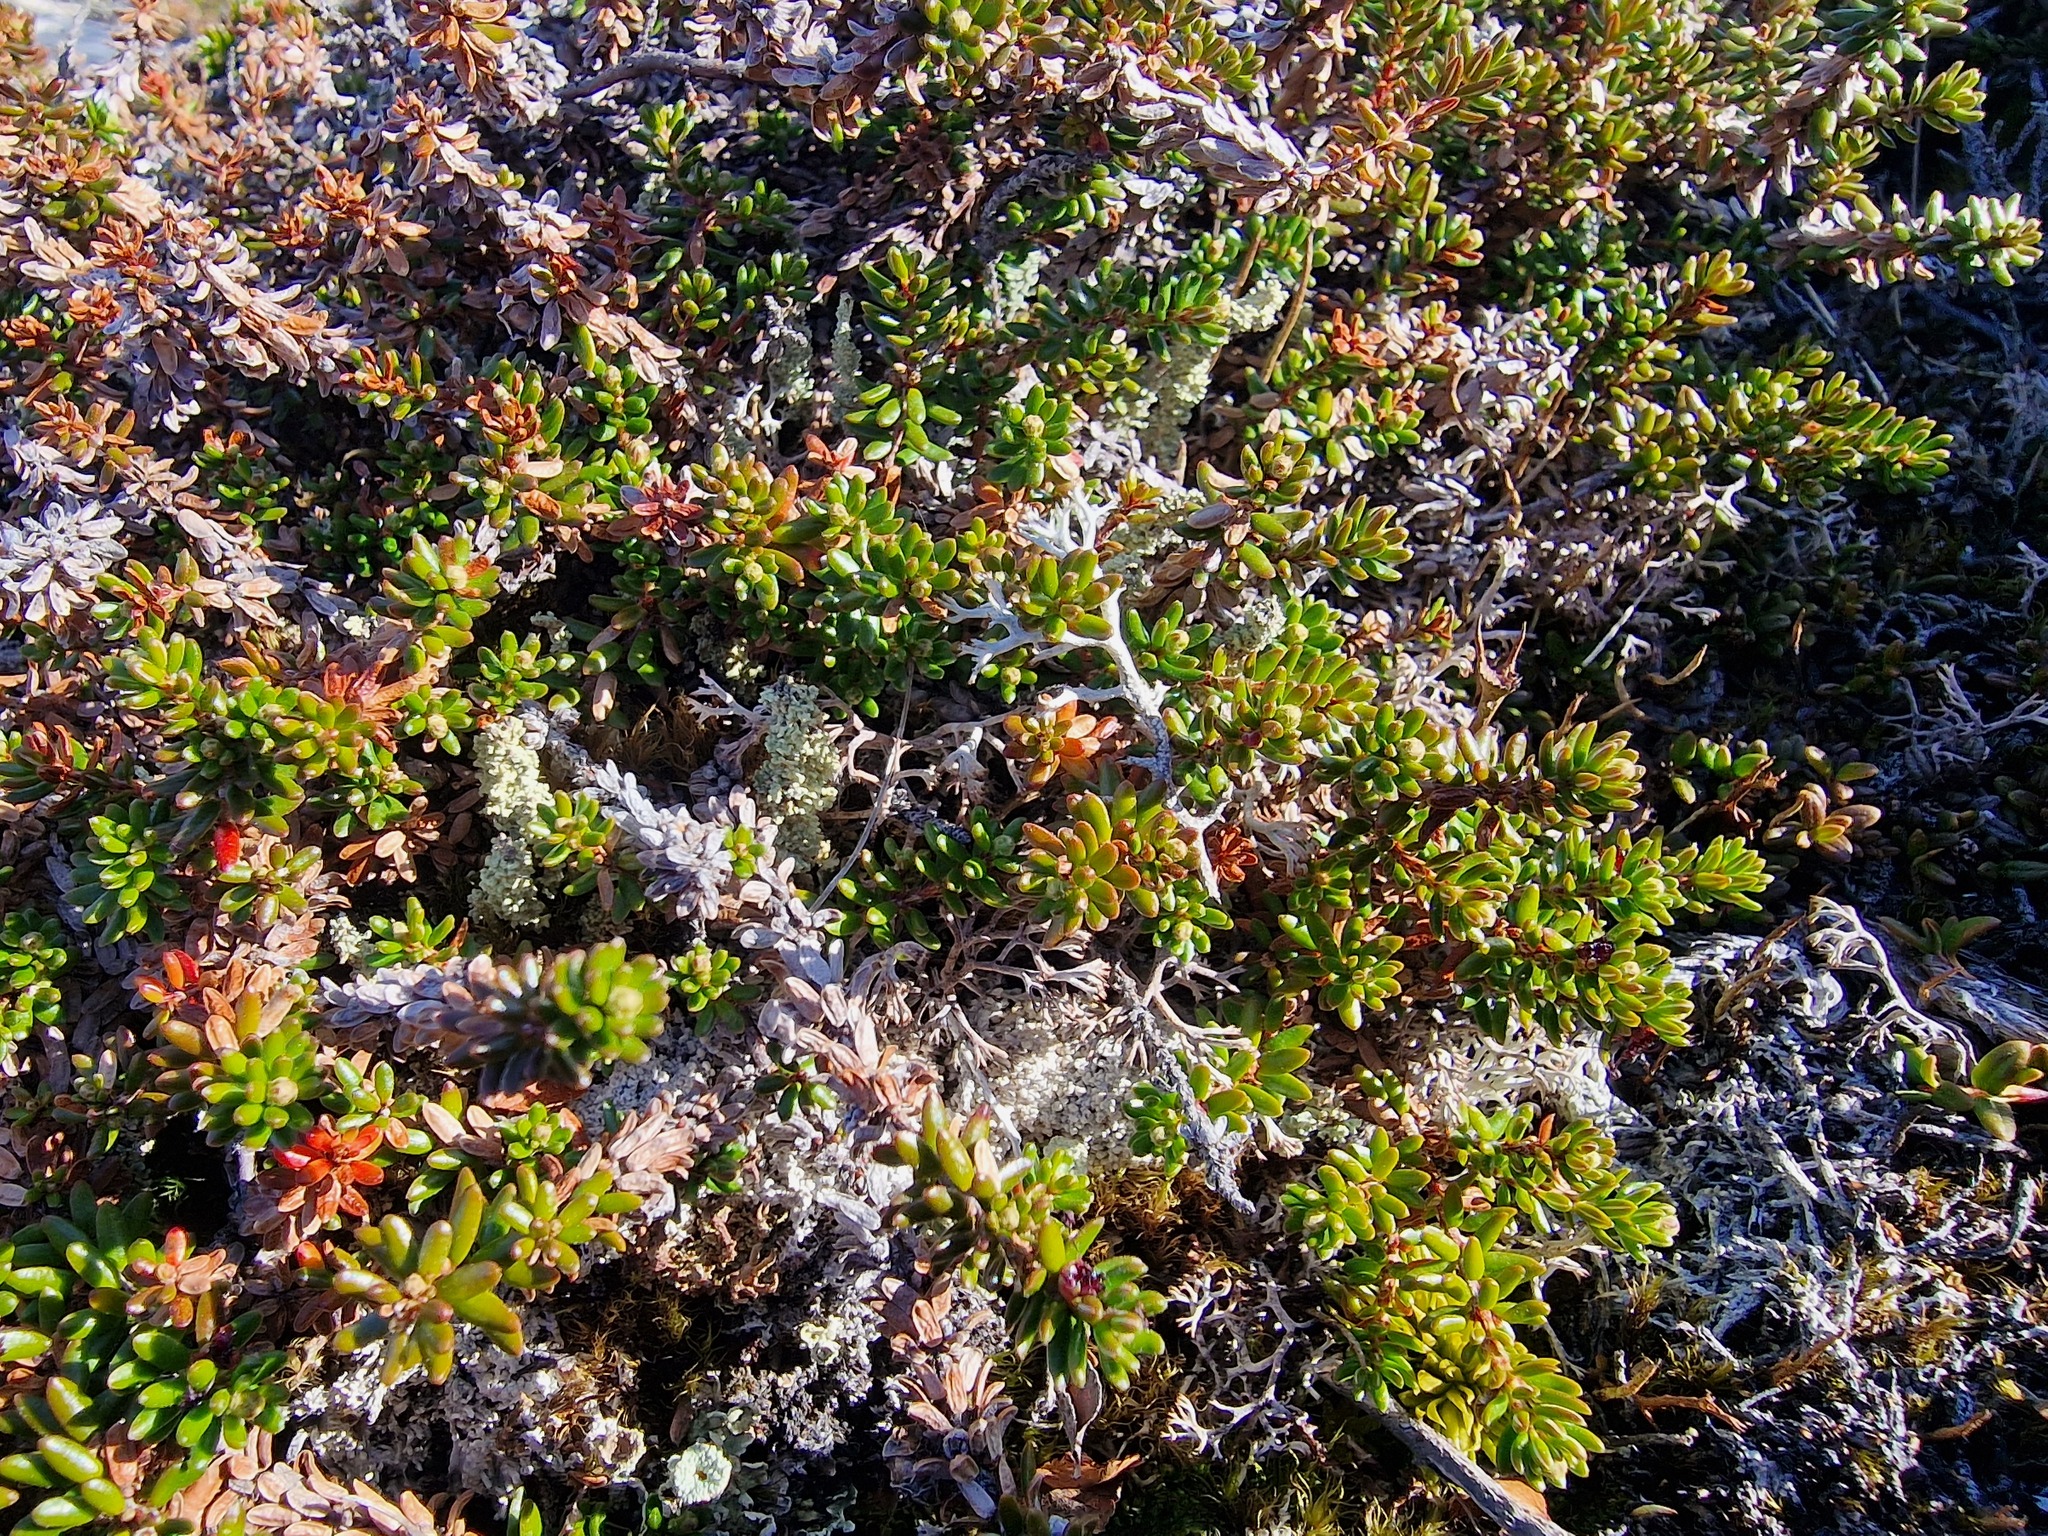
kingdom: Plantae
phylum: Tracheophyta
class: Magnoliopsida
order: Ericales
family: Ericaceae
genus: Empetrum
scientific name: Empetrum nigrum
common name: Black crowberry
